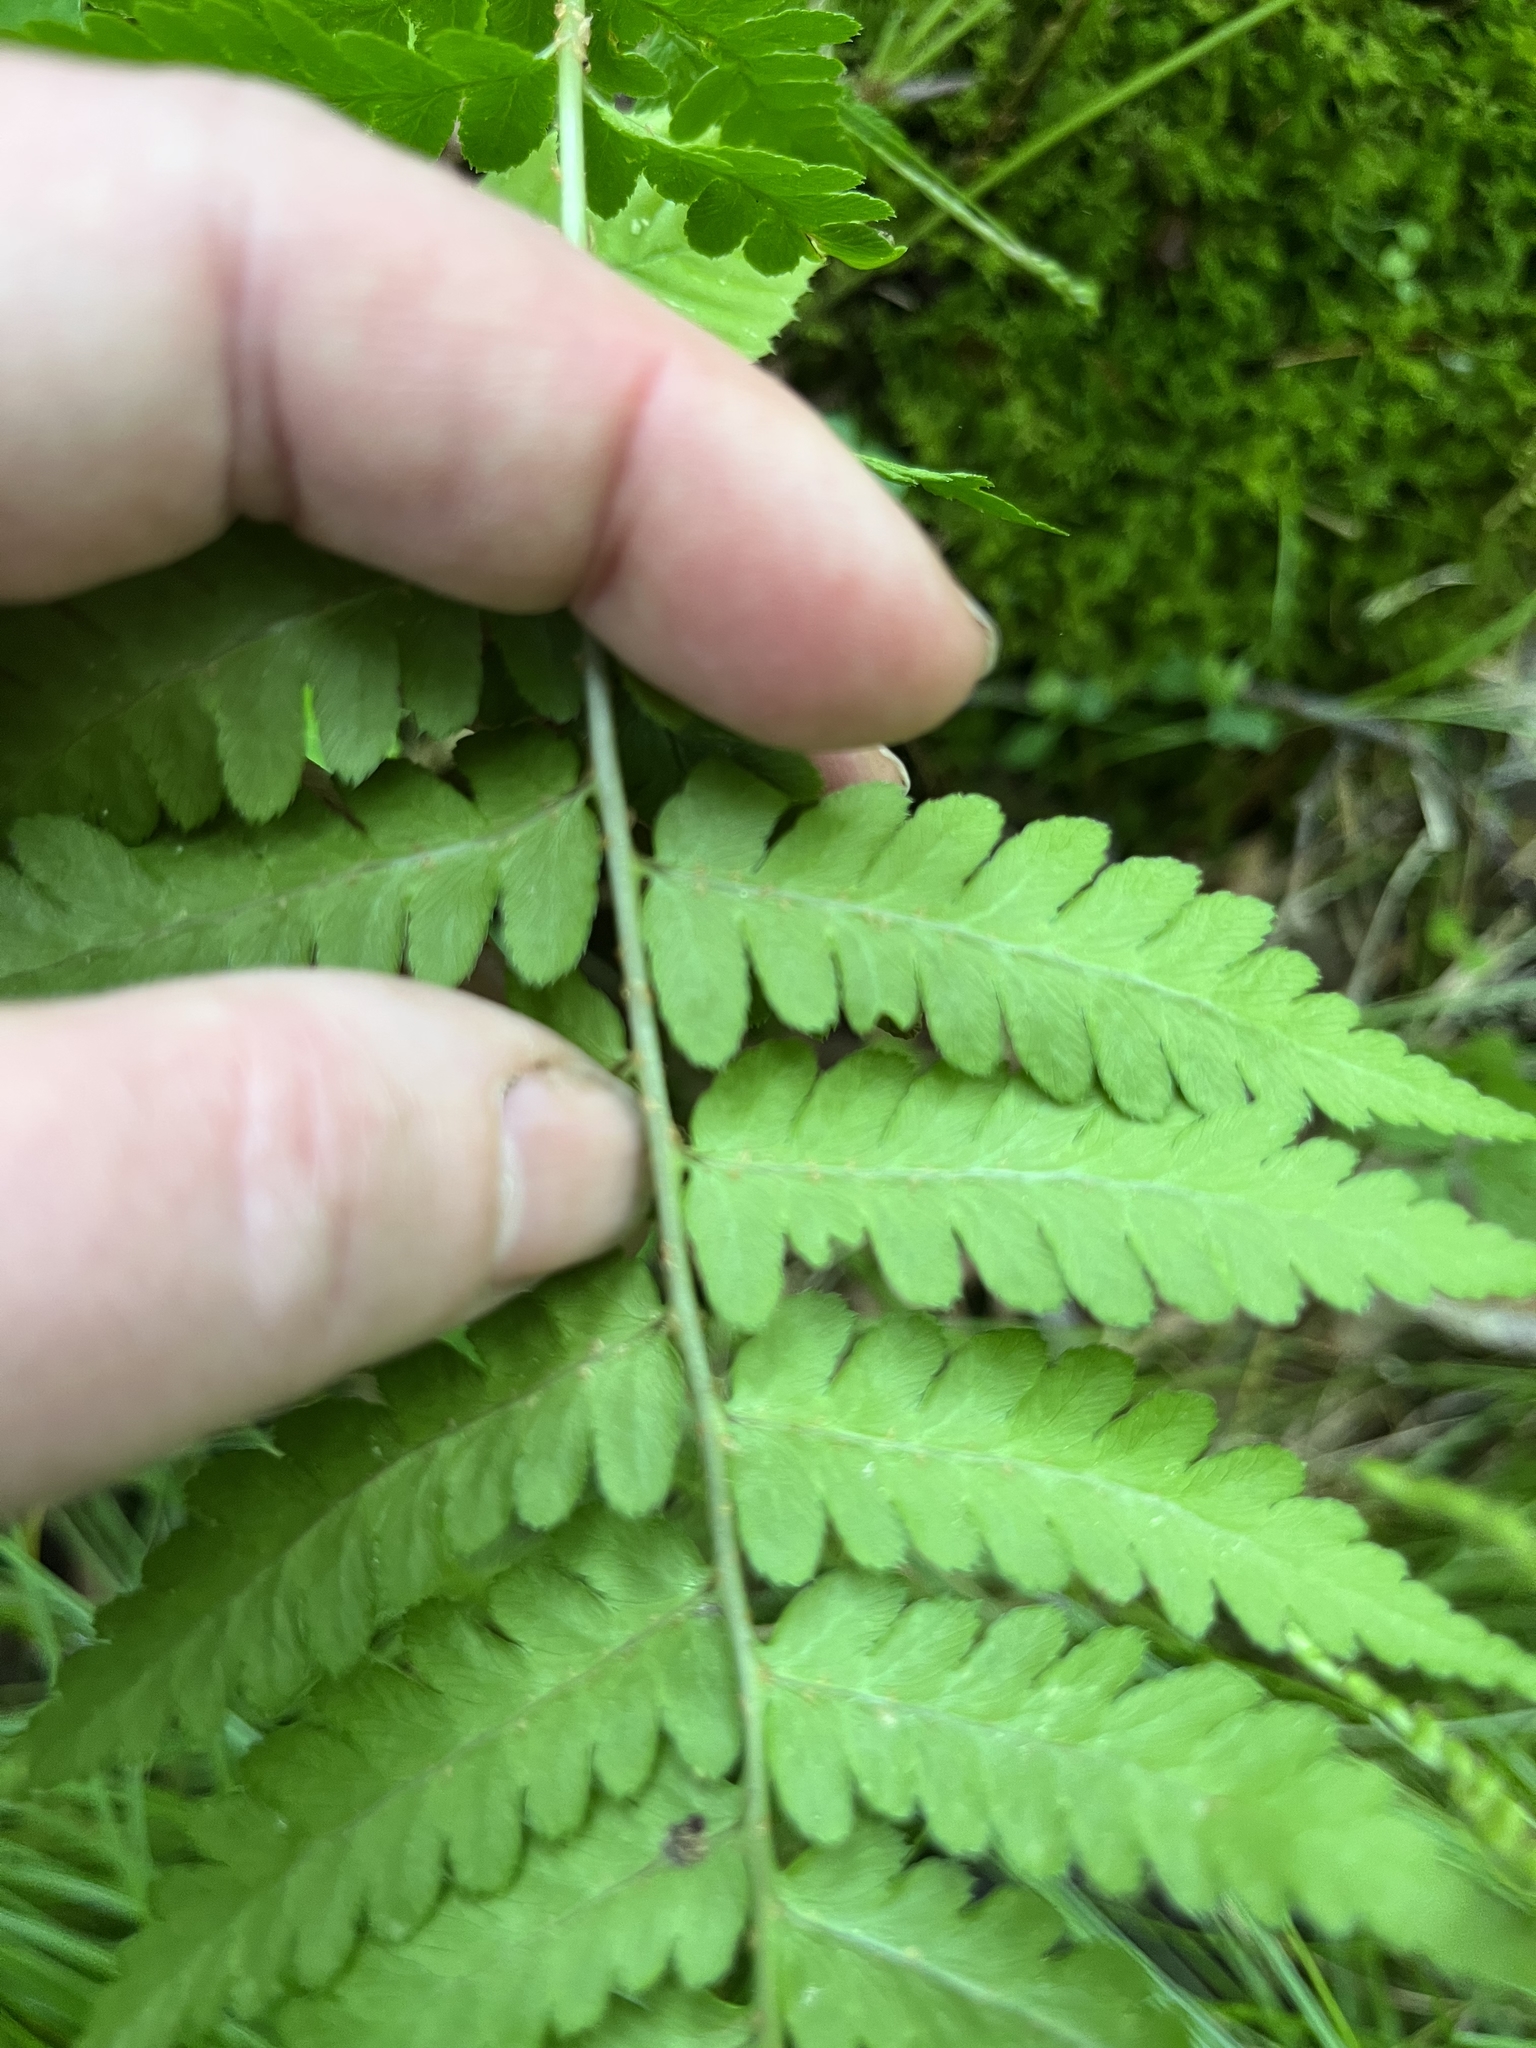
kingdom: Plantae
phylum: Tracheophyta
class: Polypodiopsida
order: Polypodiales
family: Dryopteridaceae
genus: Dryopteris
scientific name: Dryopteris clintoniana
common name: Clinton's wood fern
